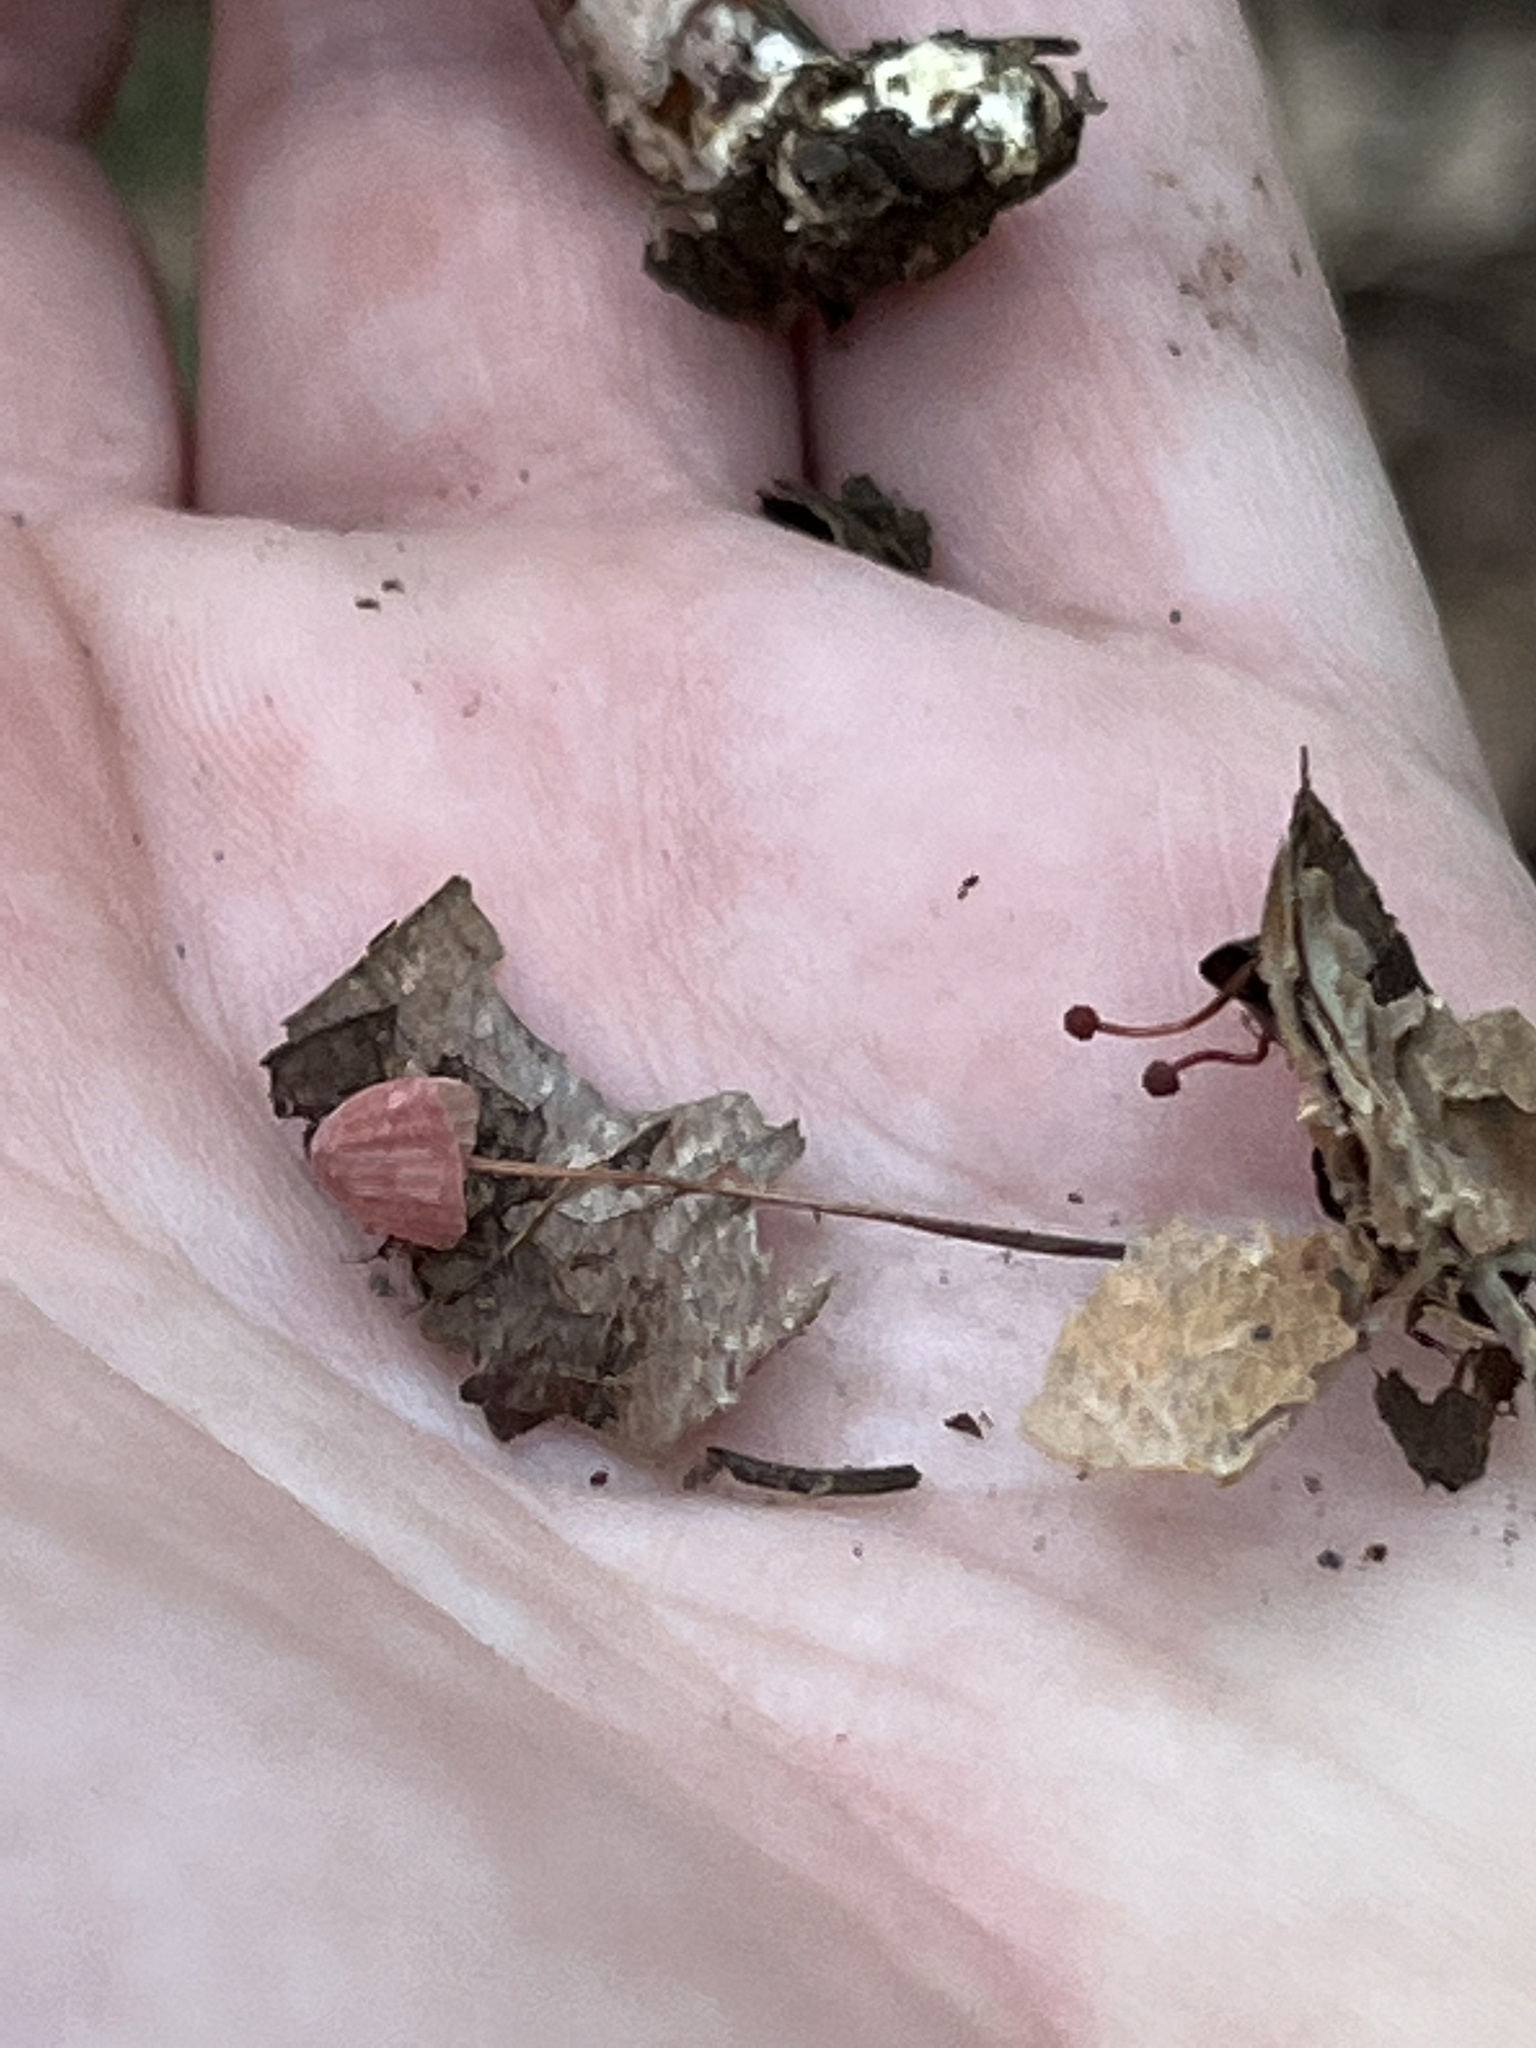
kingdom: Fungi
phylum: Basidiomycota
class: Agaricomycetes
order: Agaricales
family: Marasmiaceae
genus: Marasmius
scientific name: Marasmius pulcherripes
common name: Rosy parachute
